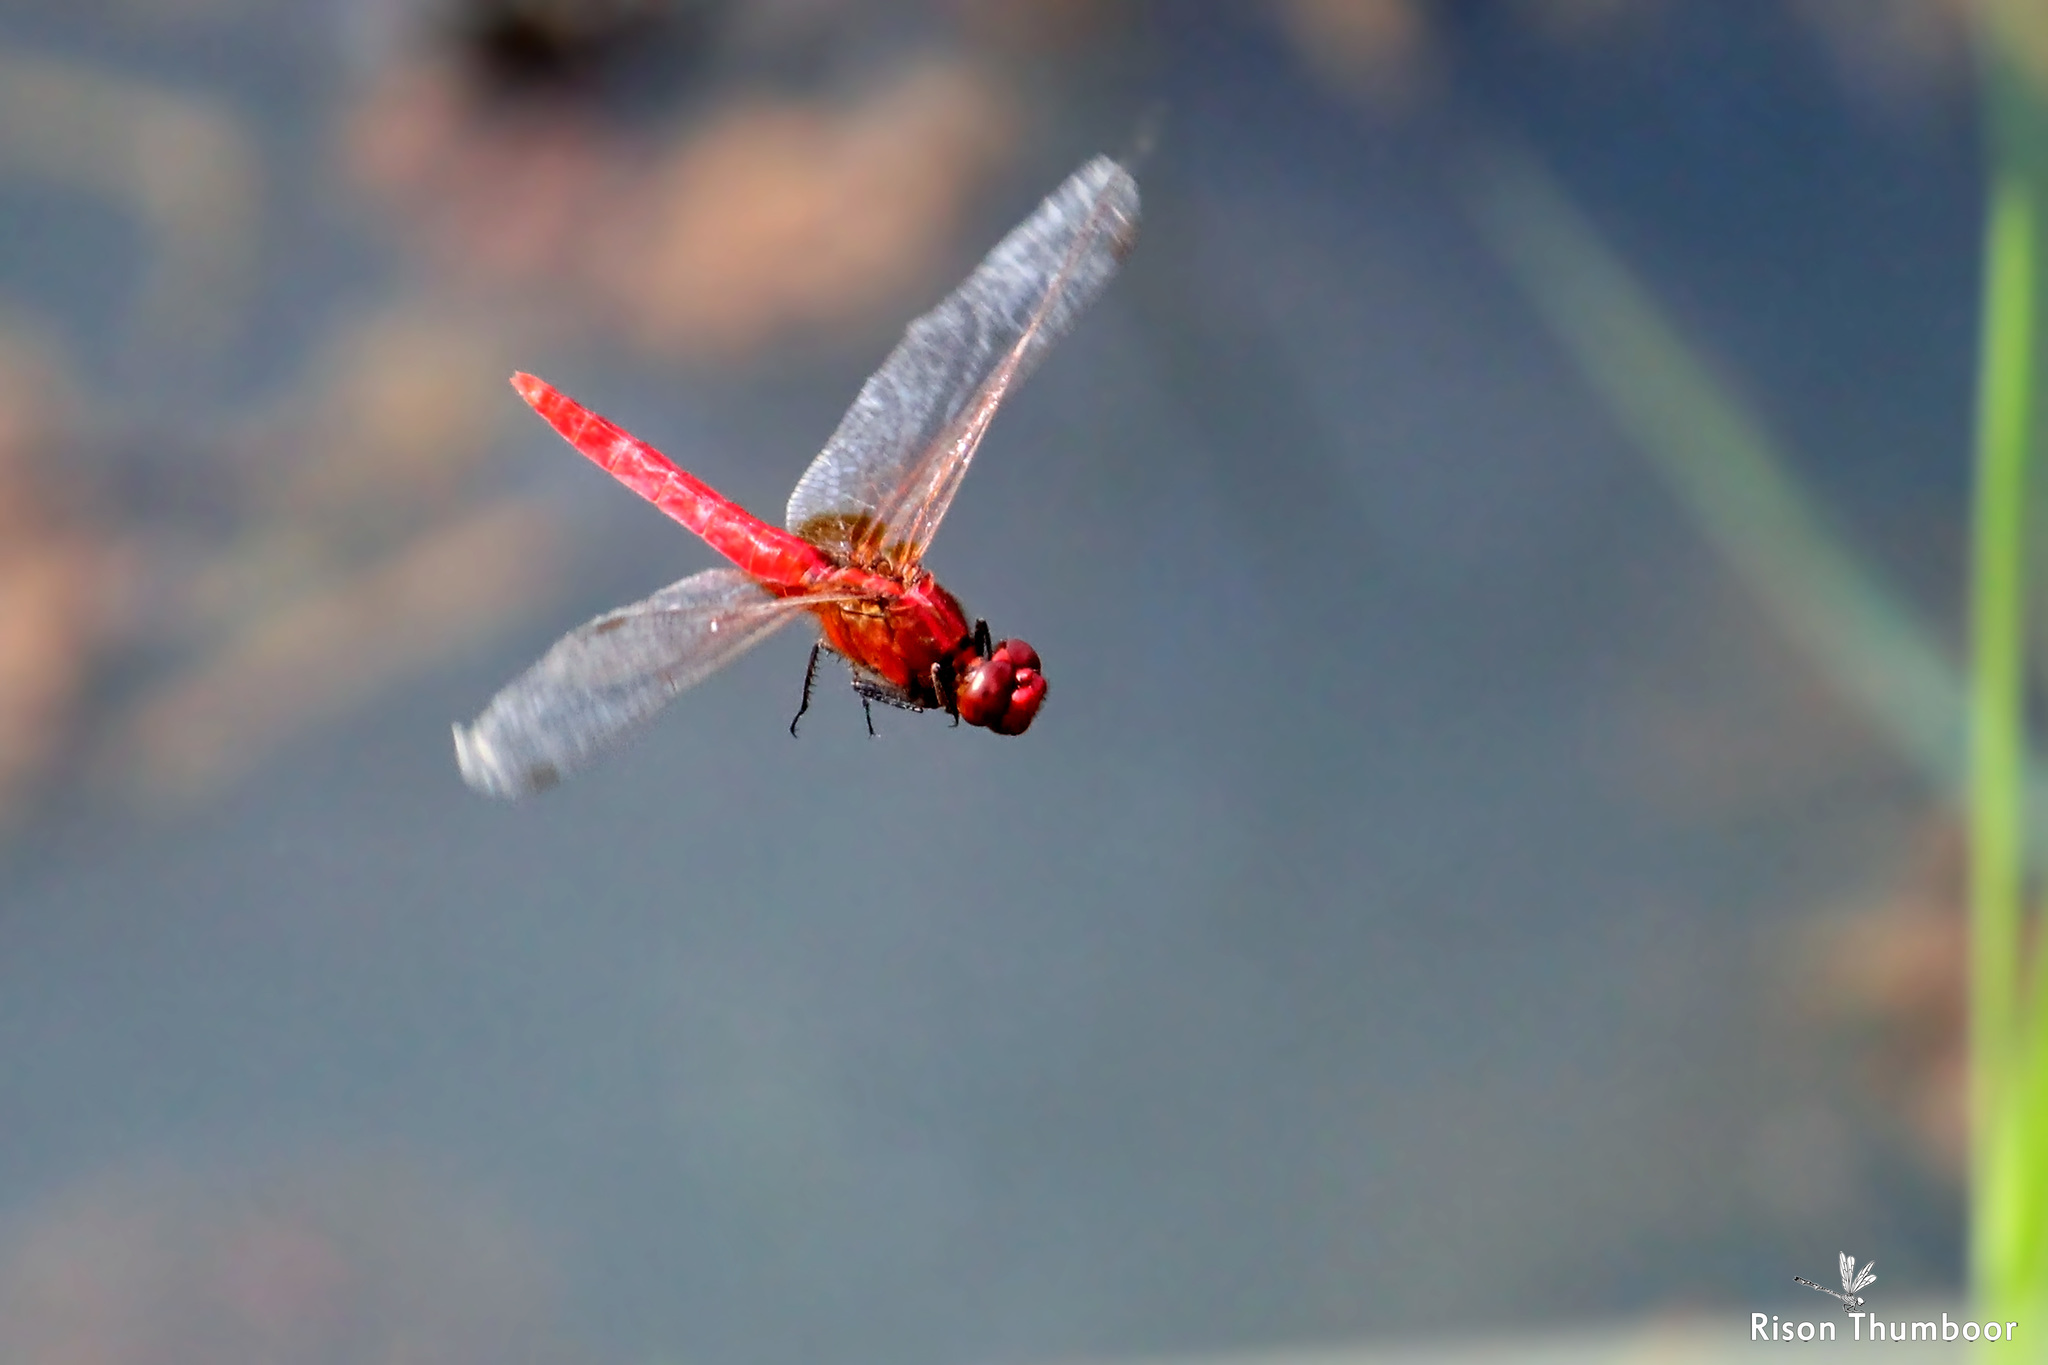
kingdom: Animalia
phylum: Arthropoda
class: Insecta
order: Odonata
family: Libellulidae
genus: Rhodothemis
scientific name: Rhodothemis rufa
